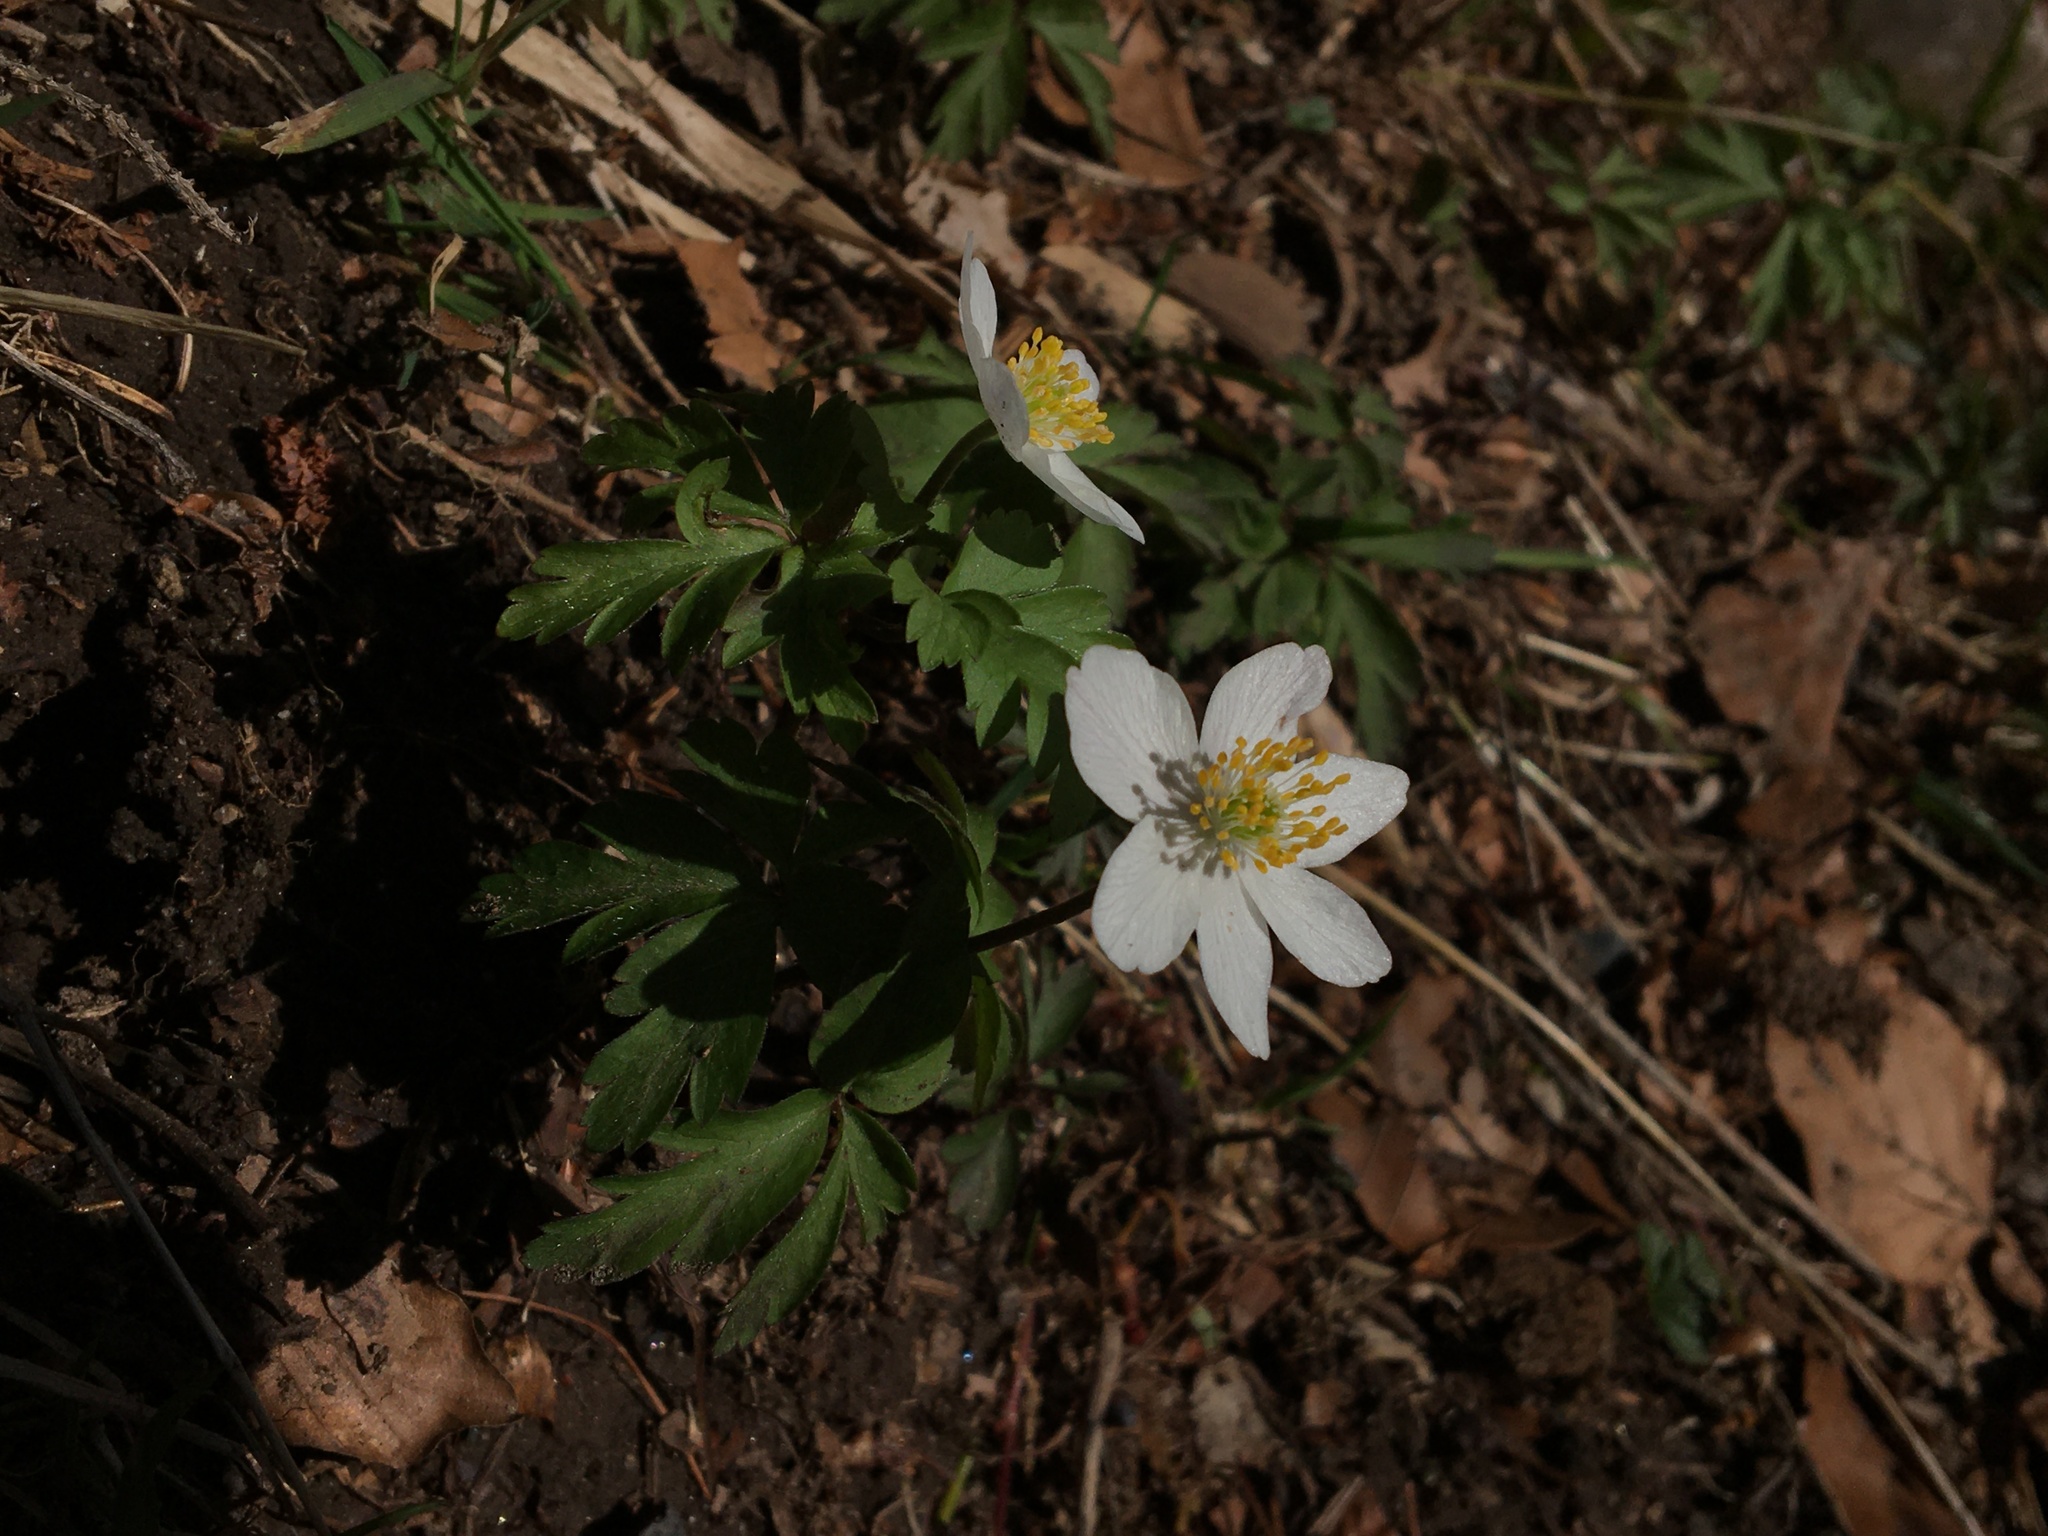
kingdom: Plantae
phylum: Tracheophyta
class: Magnoliopsida
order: Ranunculales
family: Ranunculaceae
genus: Anemone
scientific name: Anemone nemorosa
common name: Wood anemone
